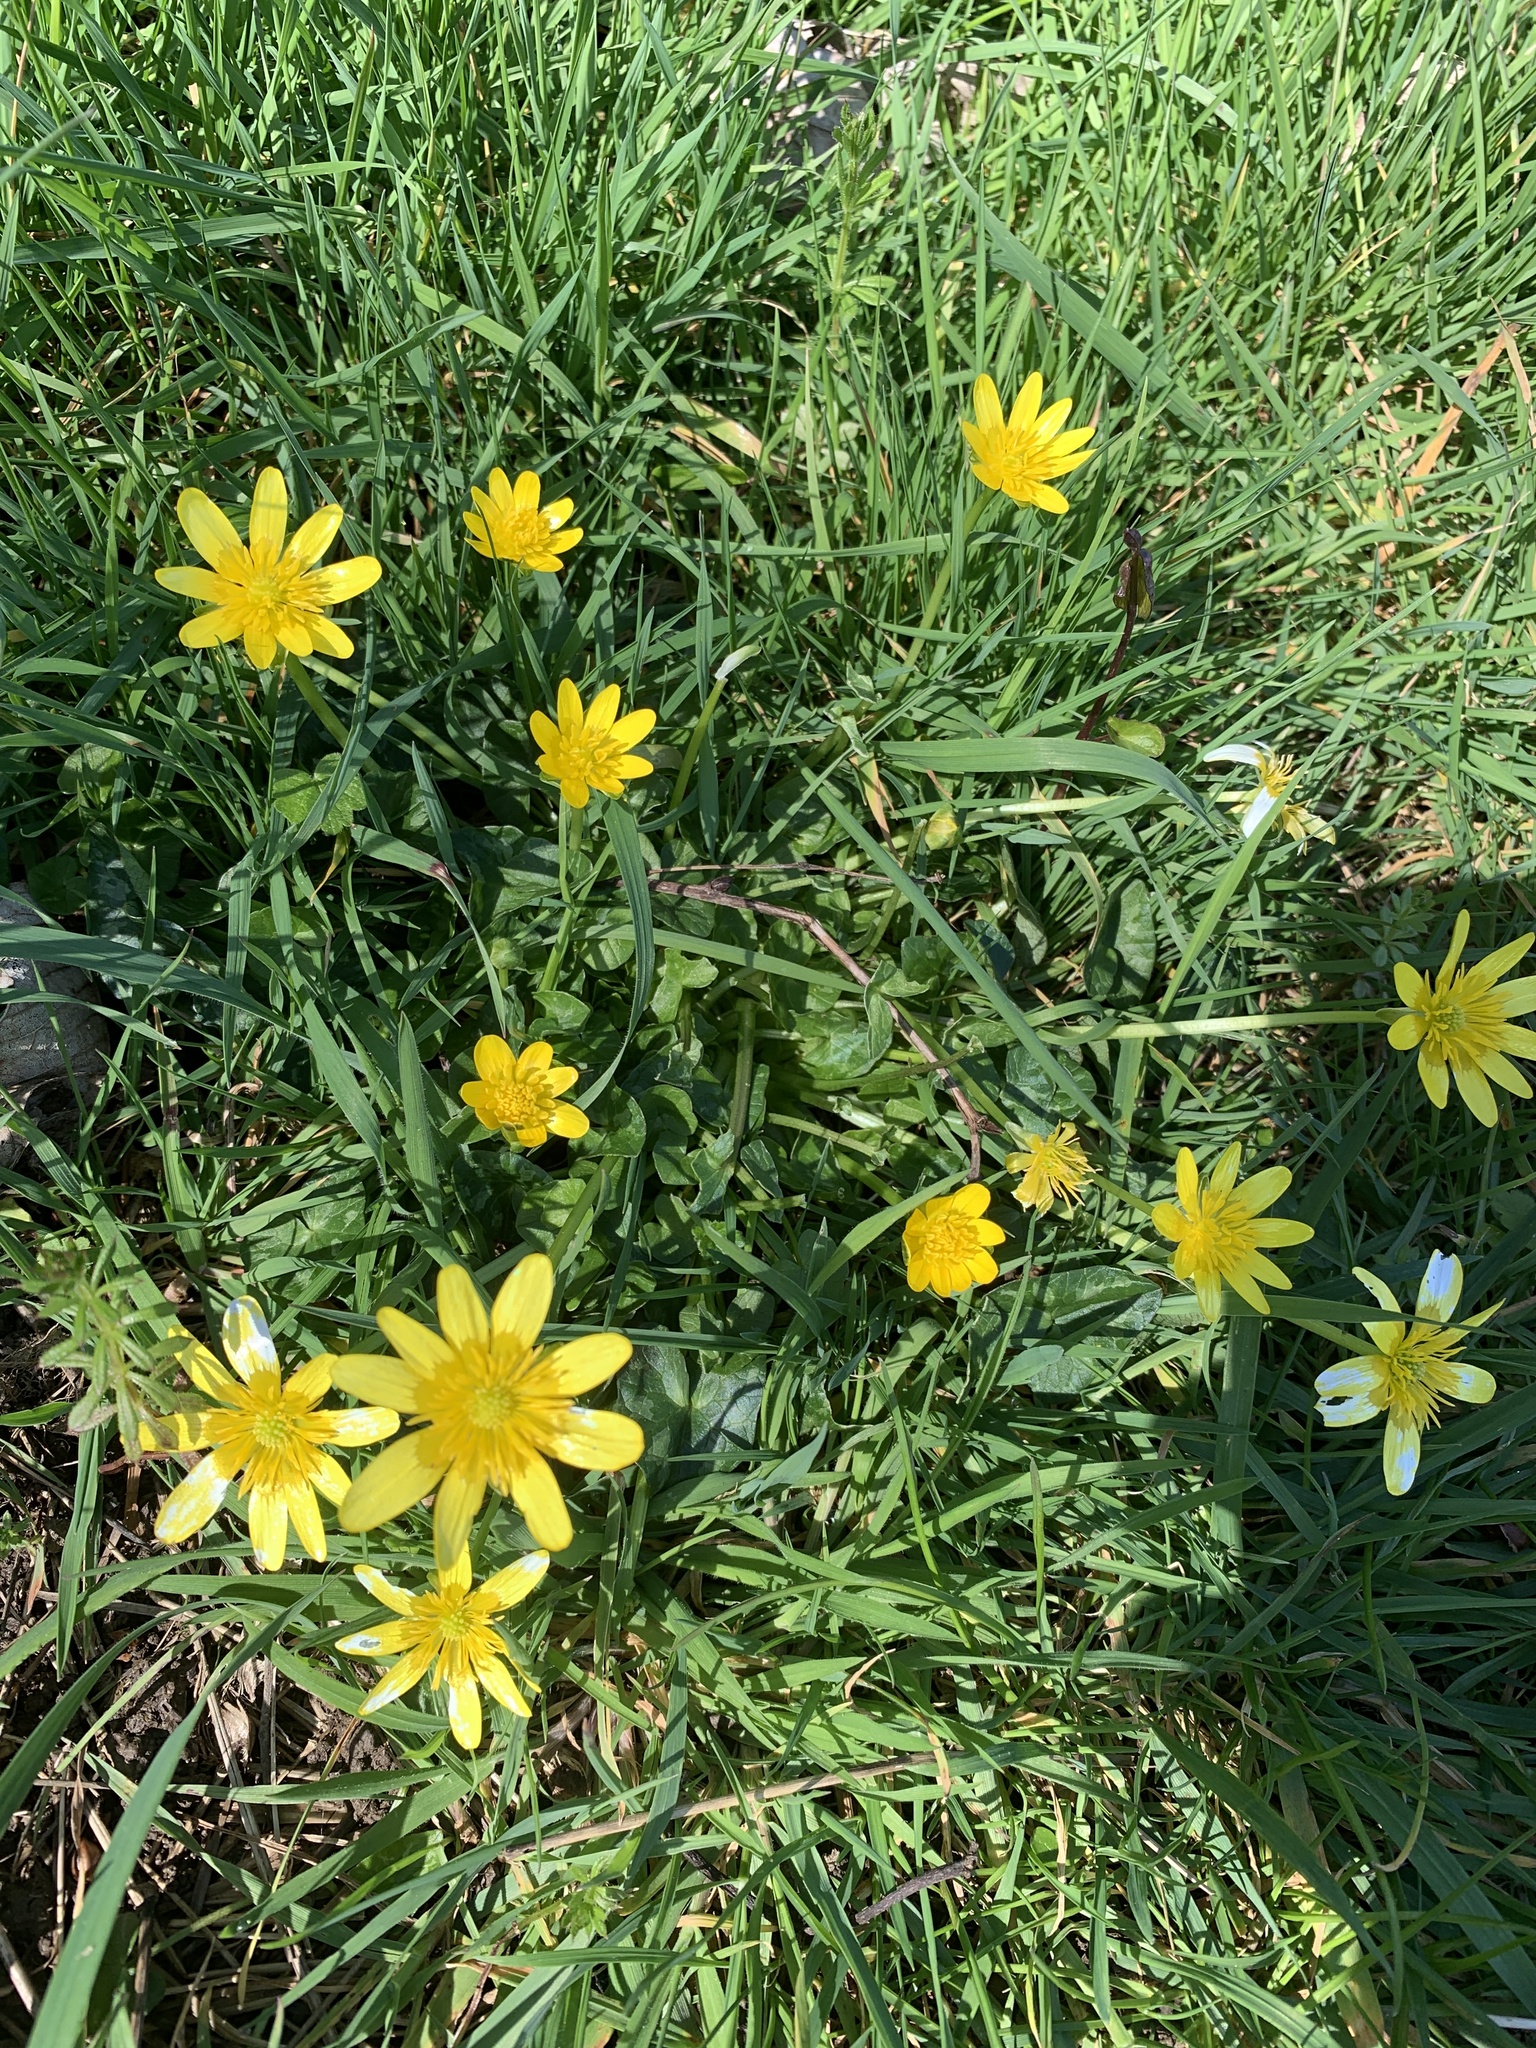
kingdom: Plantae
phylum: Tracheophyta
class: Magnoliopsida
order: Ranunculales
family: Ranunculaceae
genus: Ficaria
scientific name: Ficaria verna
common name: Lesser celandine
